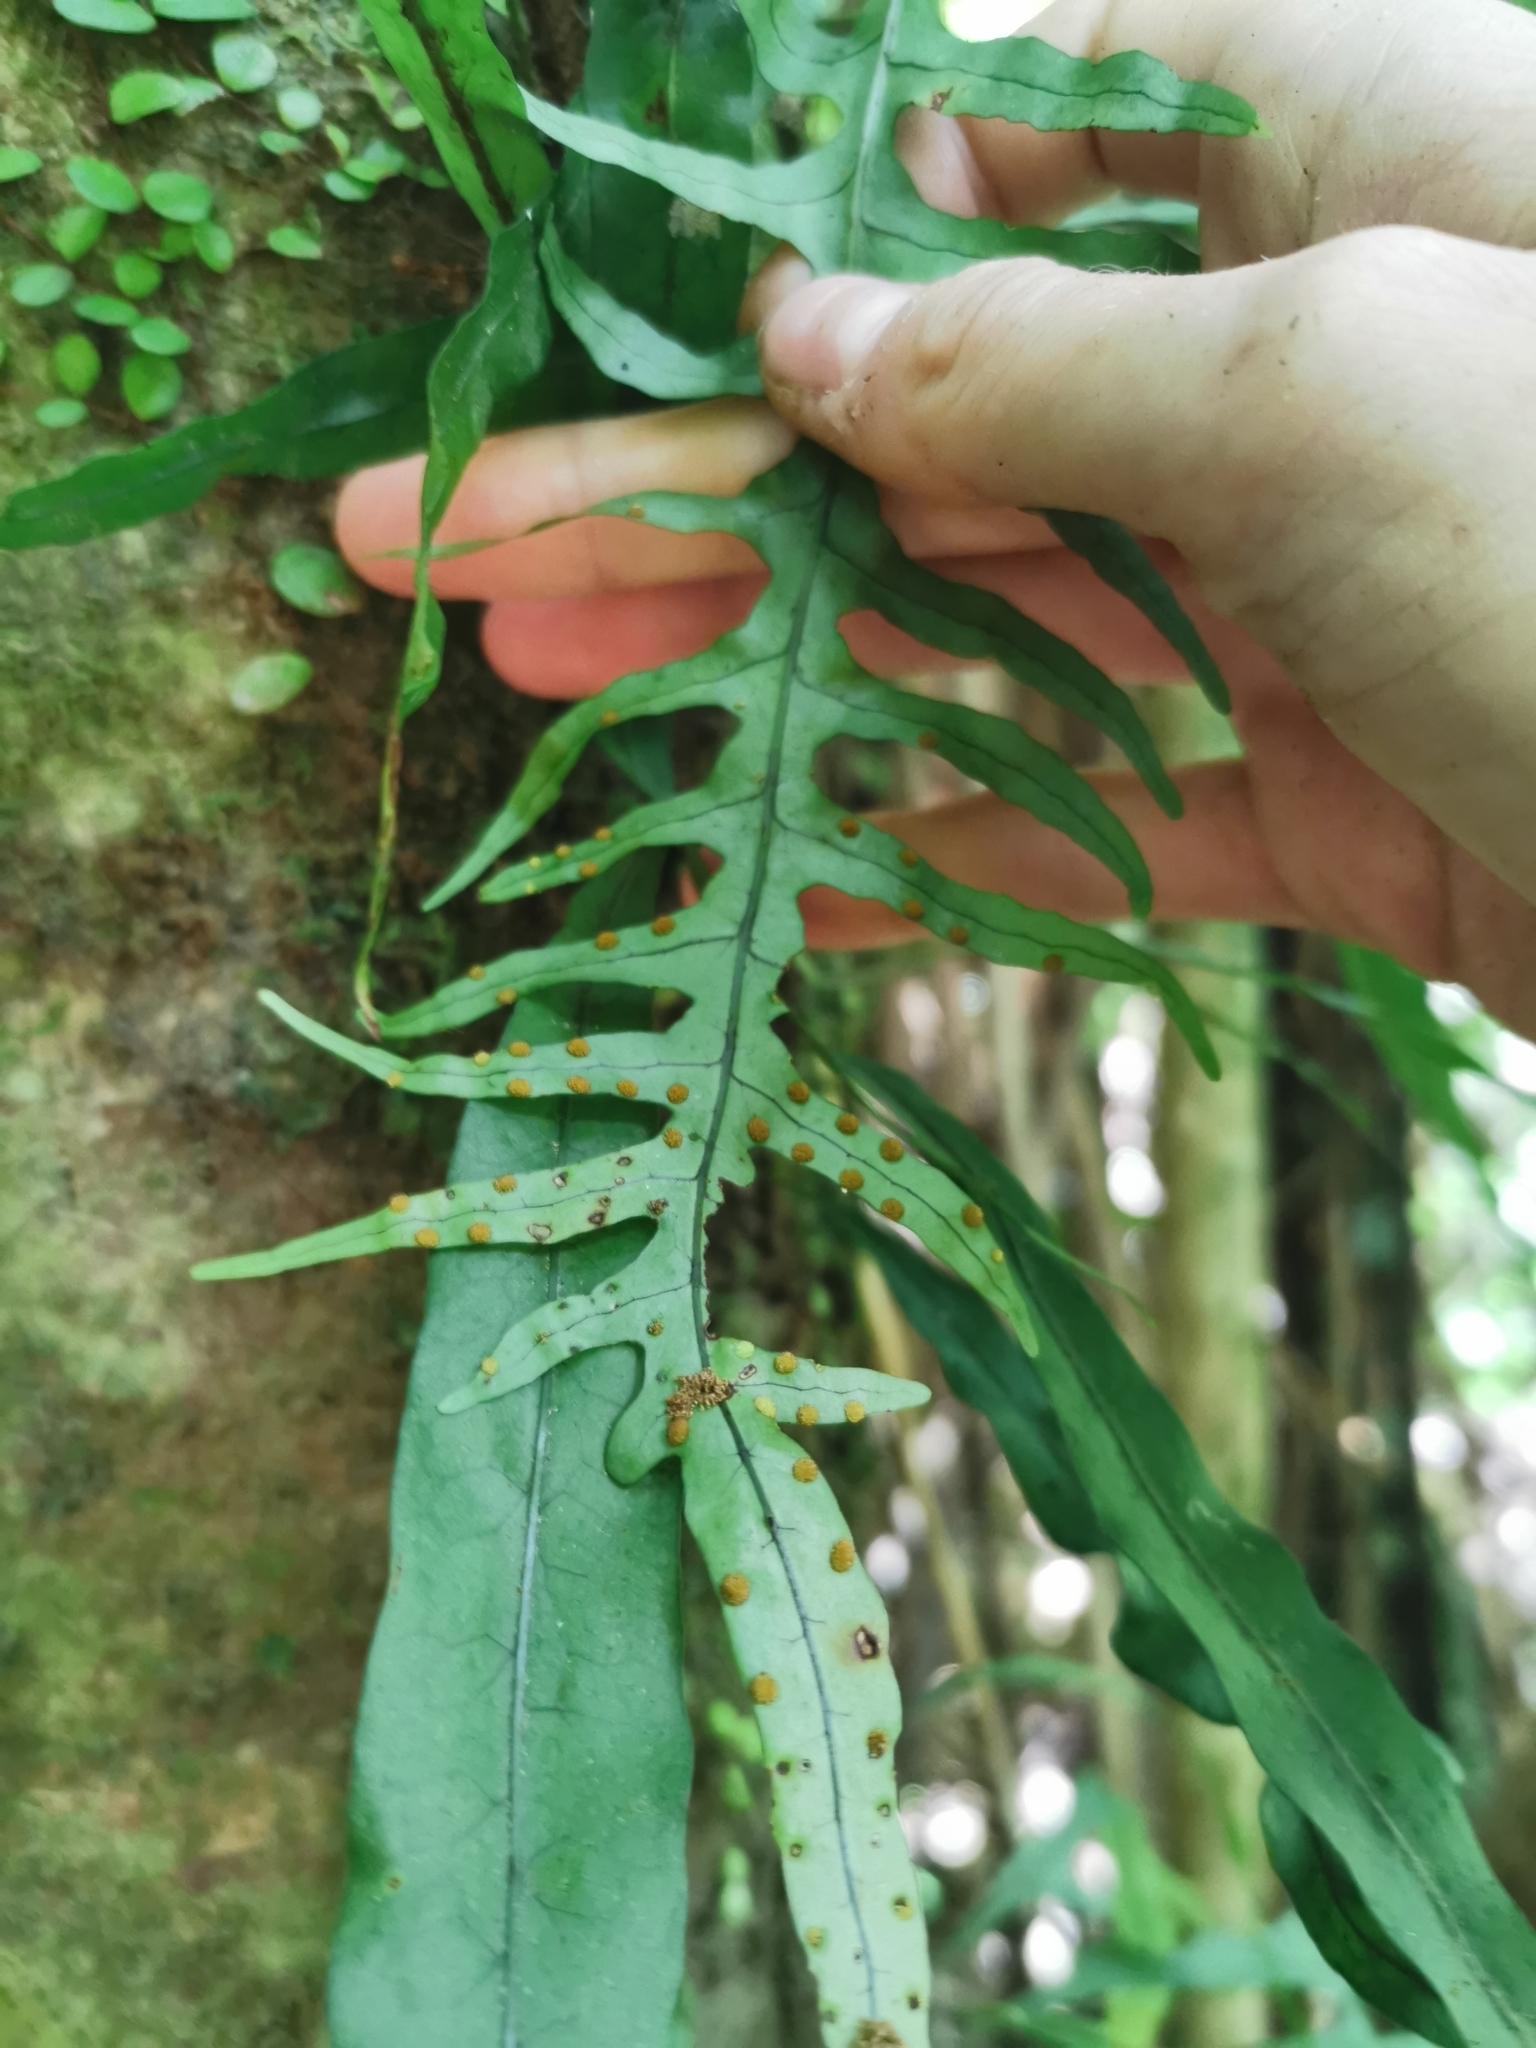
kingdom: Plantae
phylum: Tracheophyta
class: Polypodiopsida
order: Polypodiales
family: Polypodiaceae
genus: Lecanopteris
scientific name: Lecanopteris scandens
